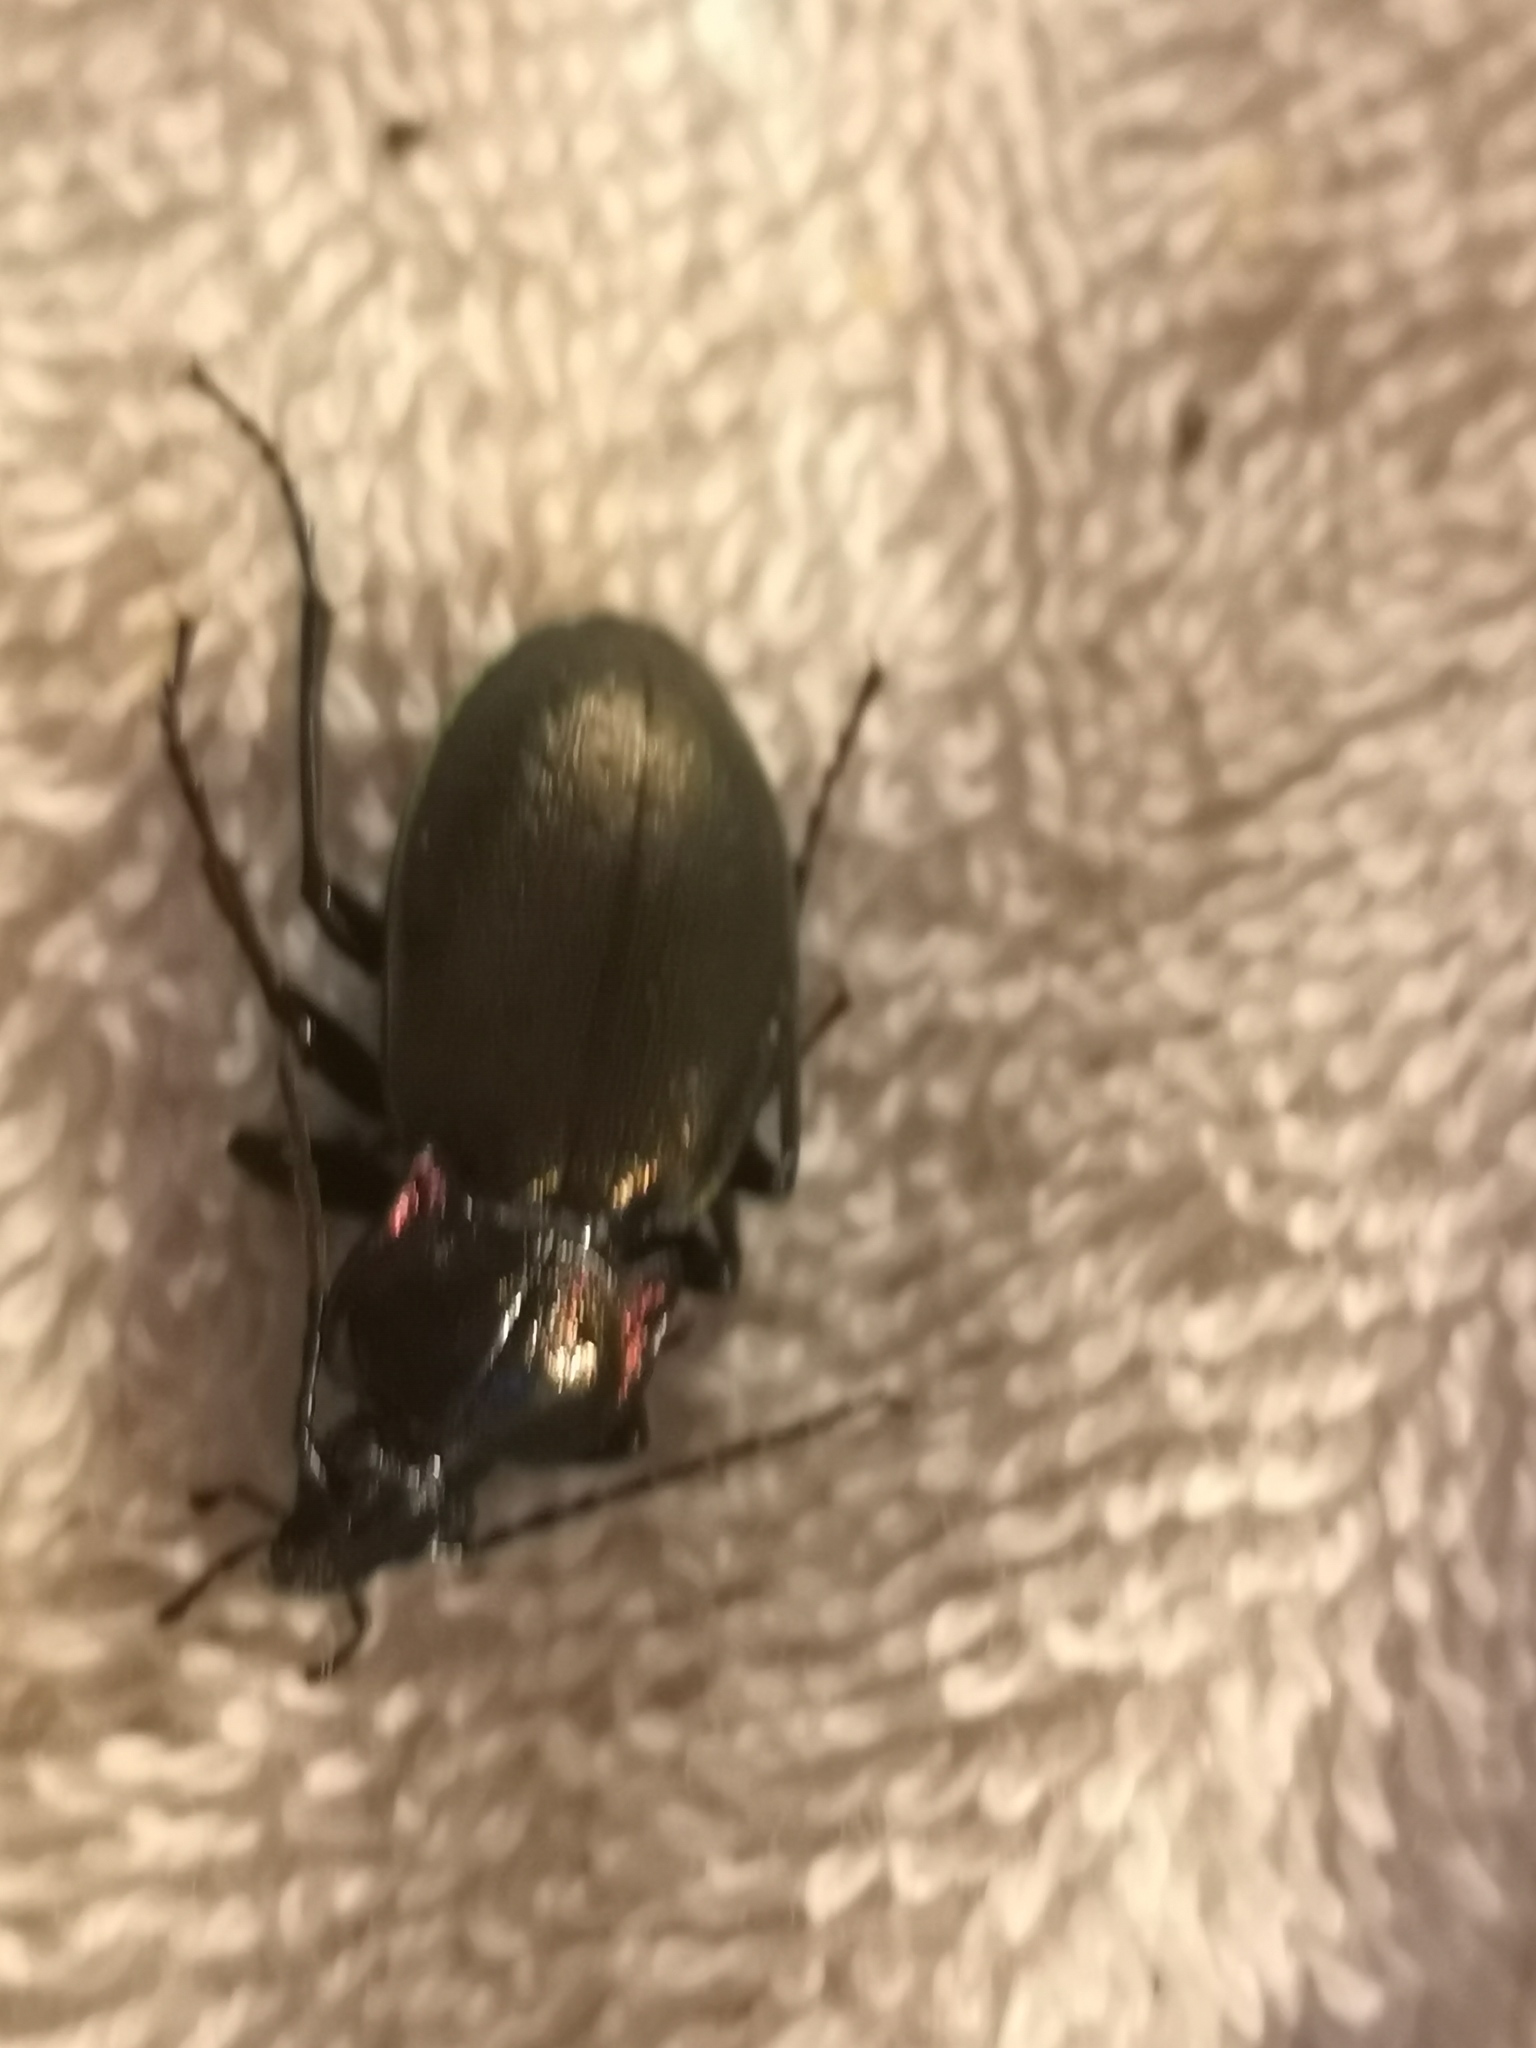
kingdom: Animalia
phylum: Arthropoda
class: Insecta
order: Coleoptera
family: Carabidae
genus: Carabus
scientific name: Carabus nemoralis
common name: European ground beetle
